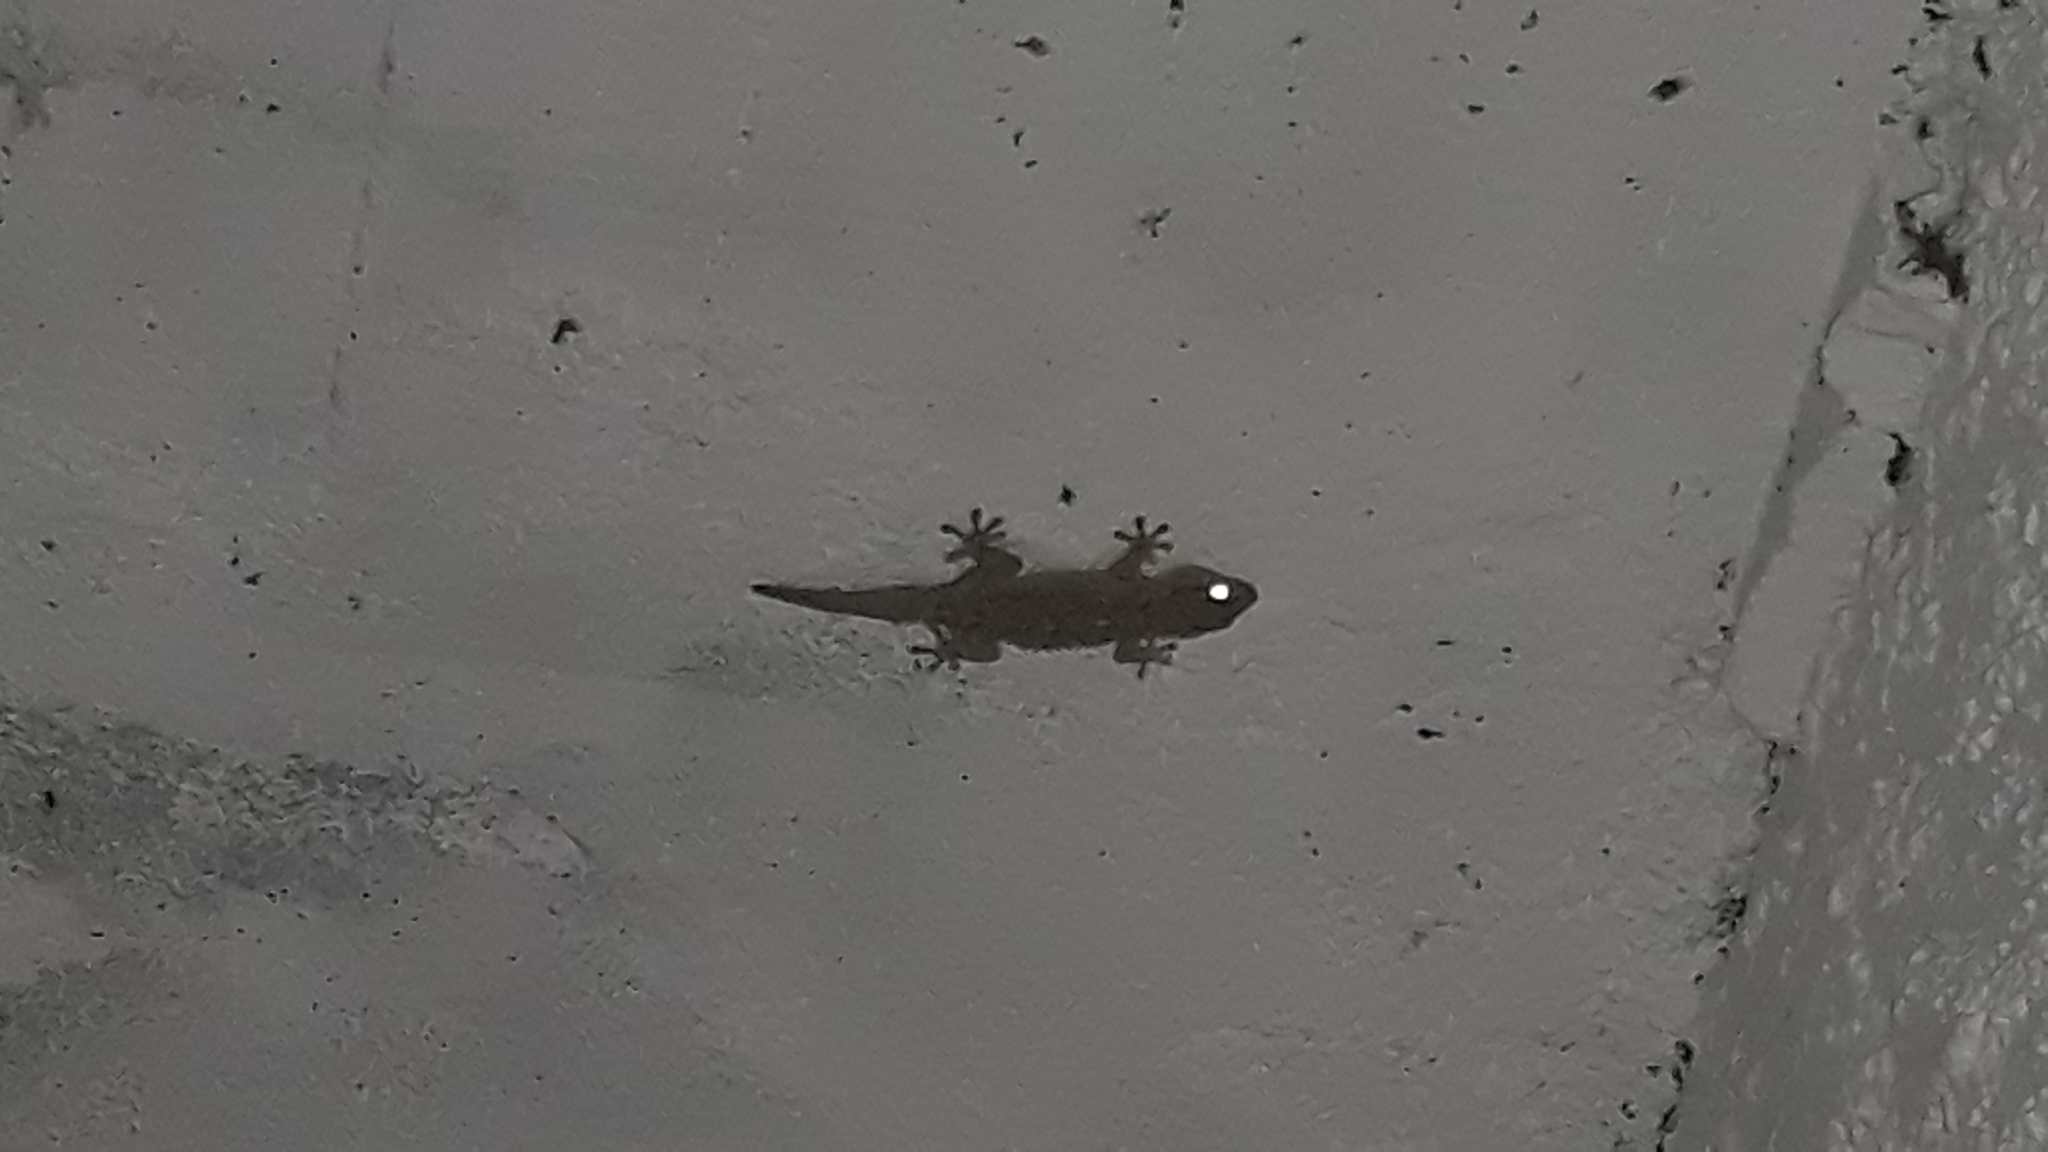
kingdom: Animalia
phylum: Chordata
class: Squamata
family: Phyllodactylidae
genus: Tarentola
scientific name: Tarentola mauritanica
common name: Moorish gecko
